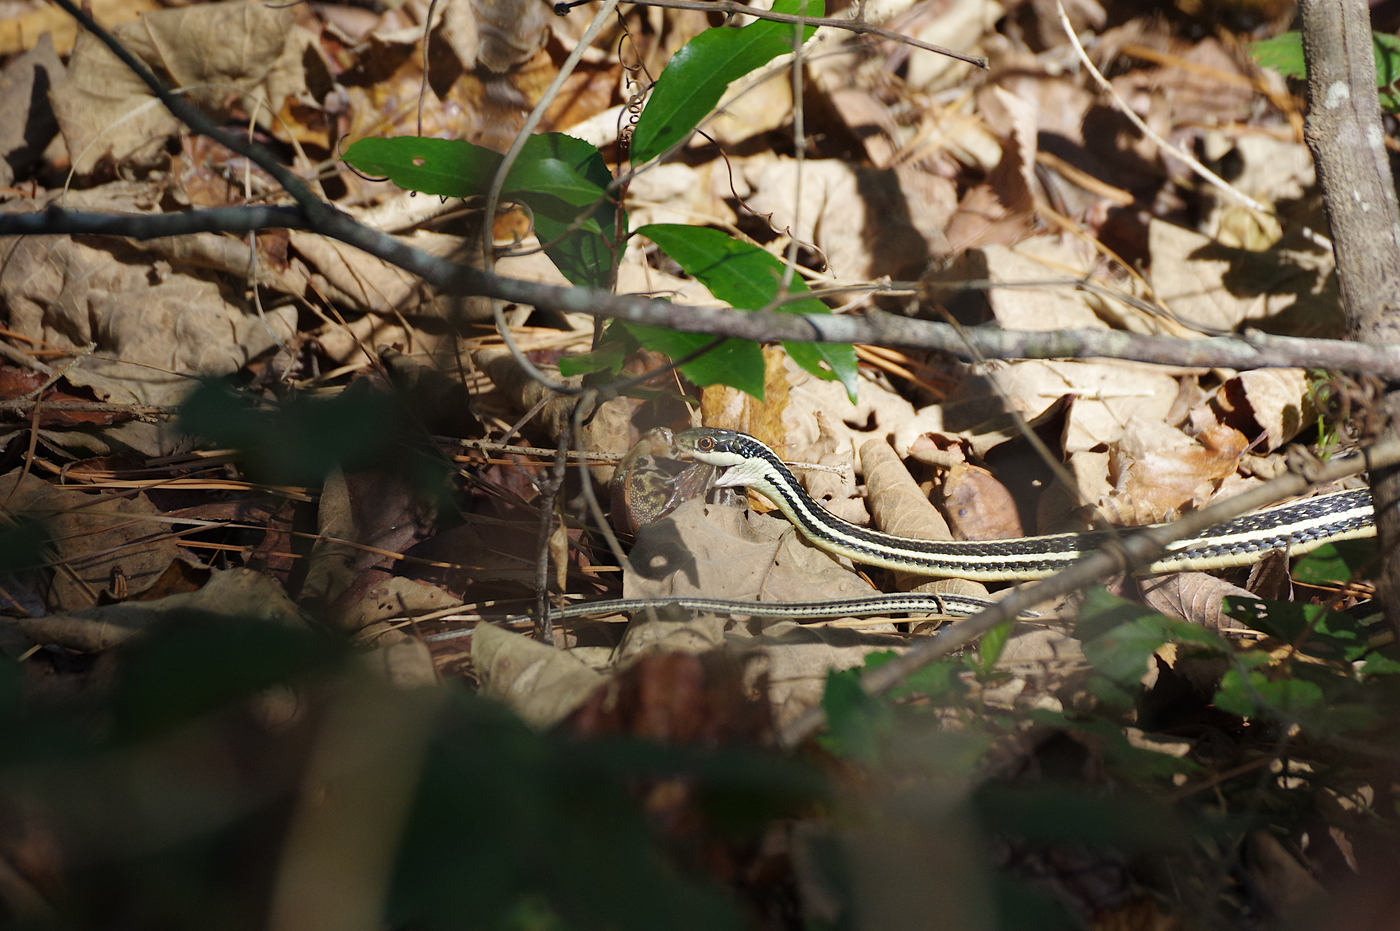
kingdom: Animalia
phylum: Chordata
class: Squamata
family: Colubridae
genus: Thamnophis
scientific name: Thamnophis proximus
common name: Western ribbon snake
